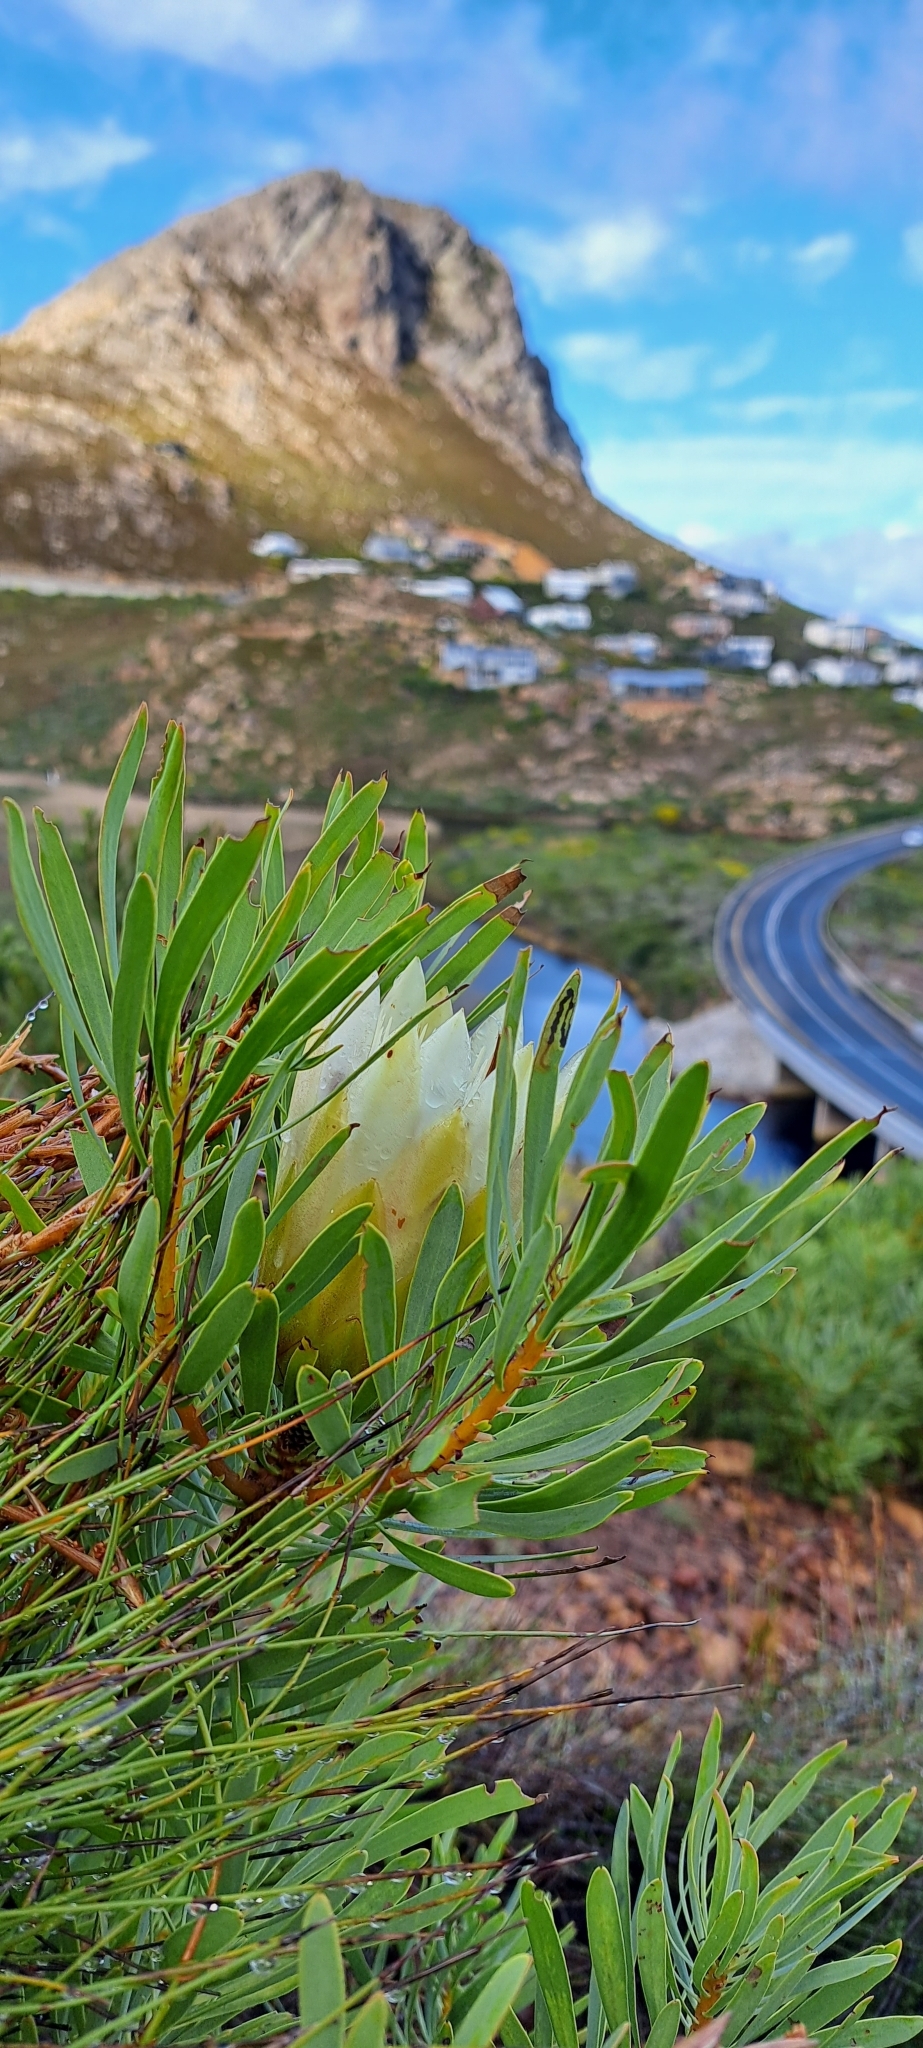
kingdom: Plantae
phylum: Tracheophyta
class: Magnoliopsida
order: Proteales
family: Proteaceae
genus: Protea
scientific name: Protea repens
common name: Sugarbush
